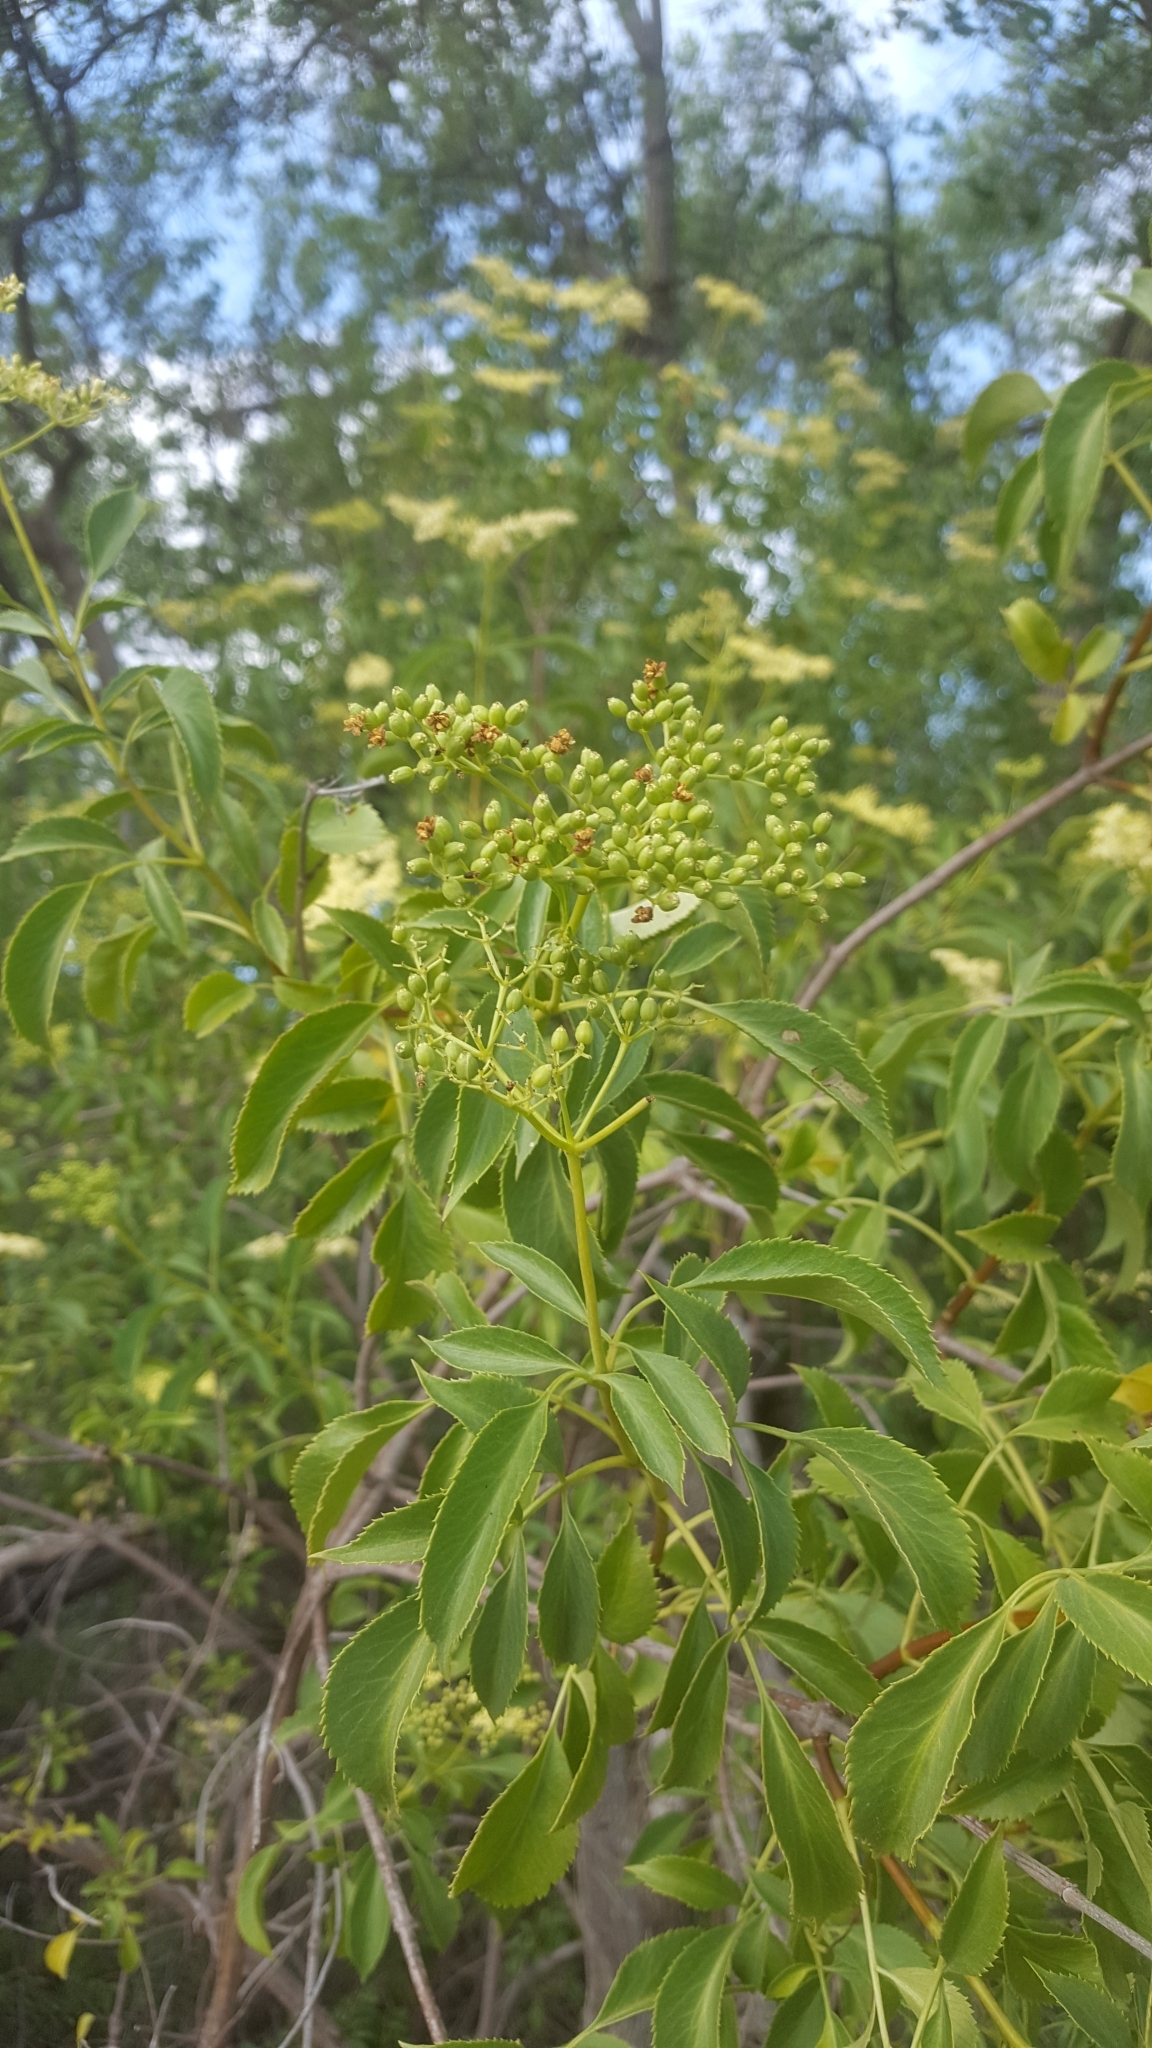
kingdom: Plantae
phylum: Tracheophyta
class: Magnoliopsida
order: Dipsacales
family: Viburnaceae
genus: Sambucus
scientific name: Sambucus cerulea
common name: Blue elder
